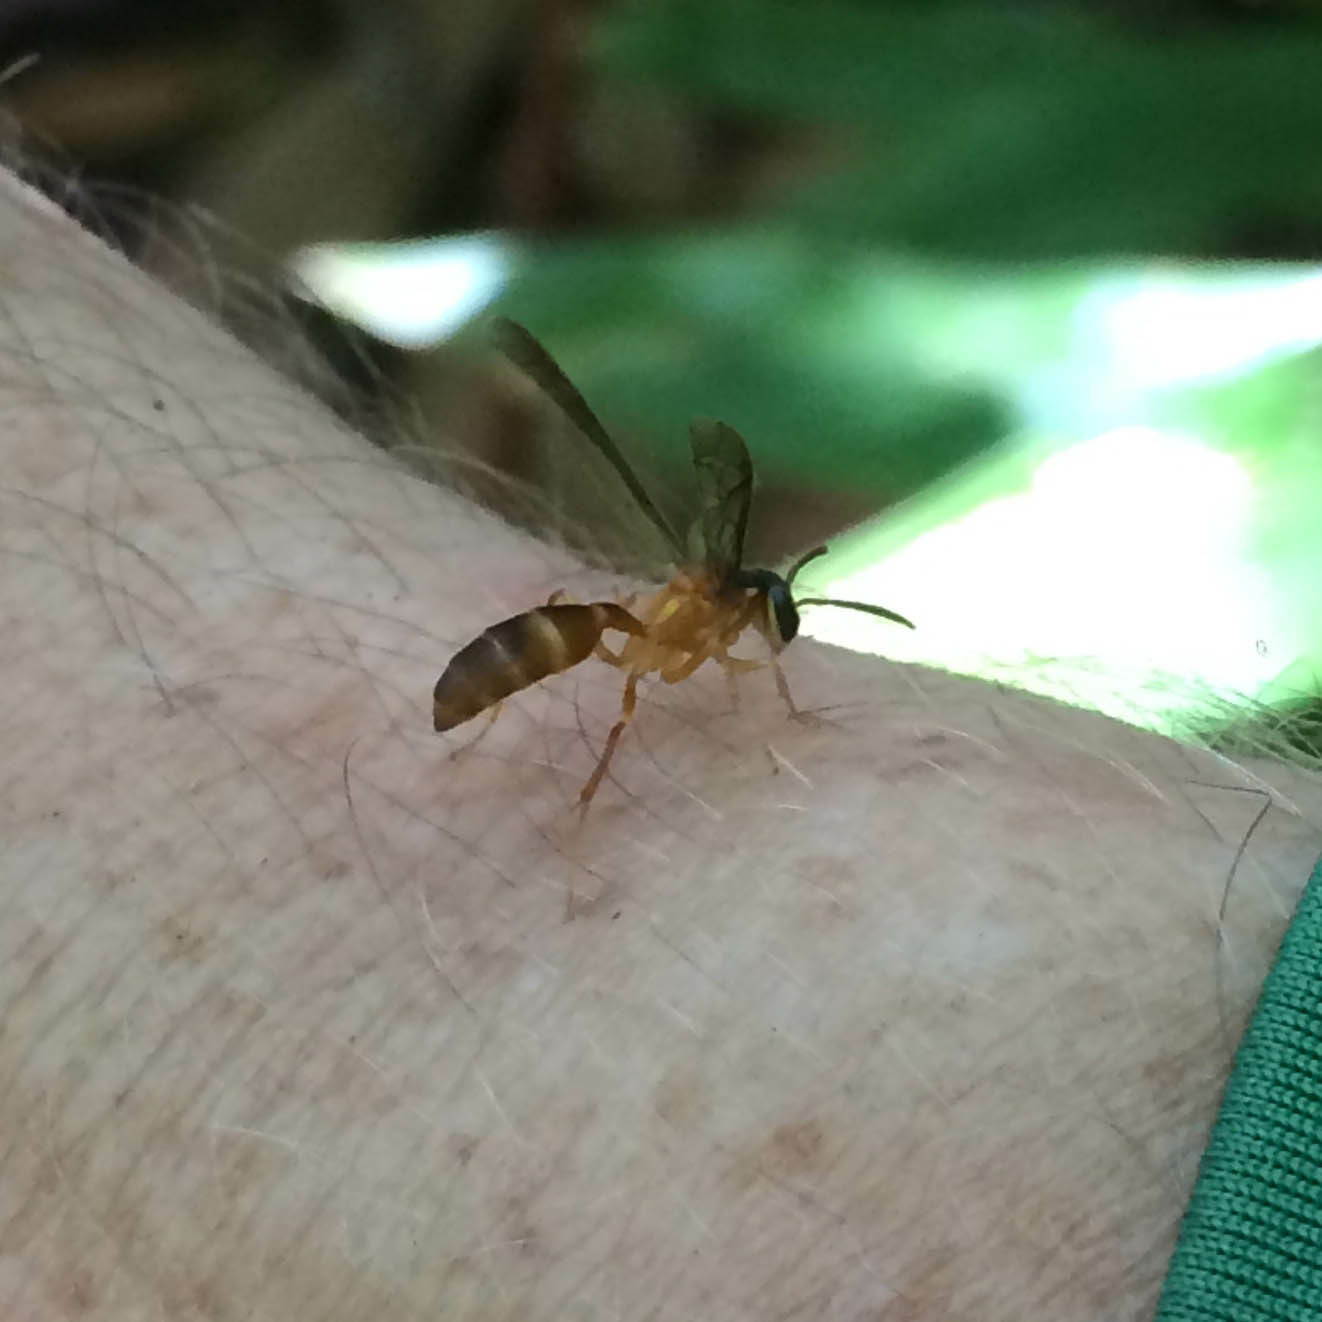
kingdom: Animalia
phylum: Arthropoda
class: Insecta
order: Hymenoptera
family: Vespidae
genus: Angiopolybia
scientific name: Angiopolybia pallens
